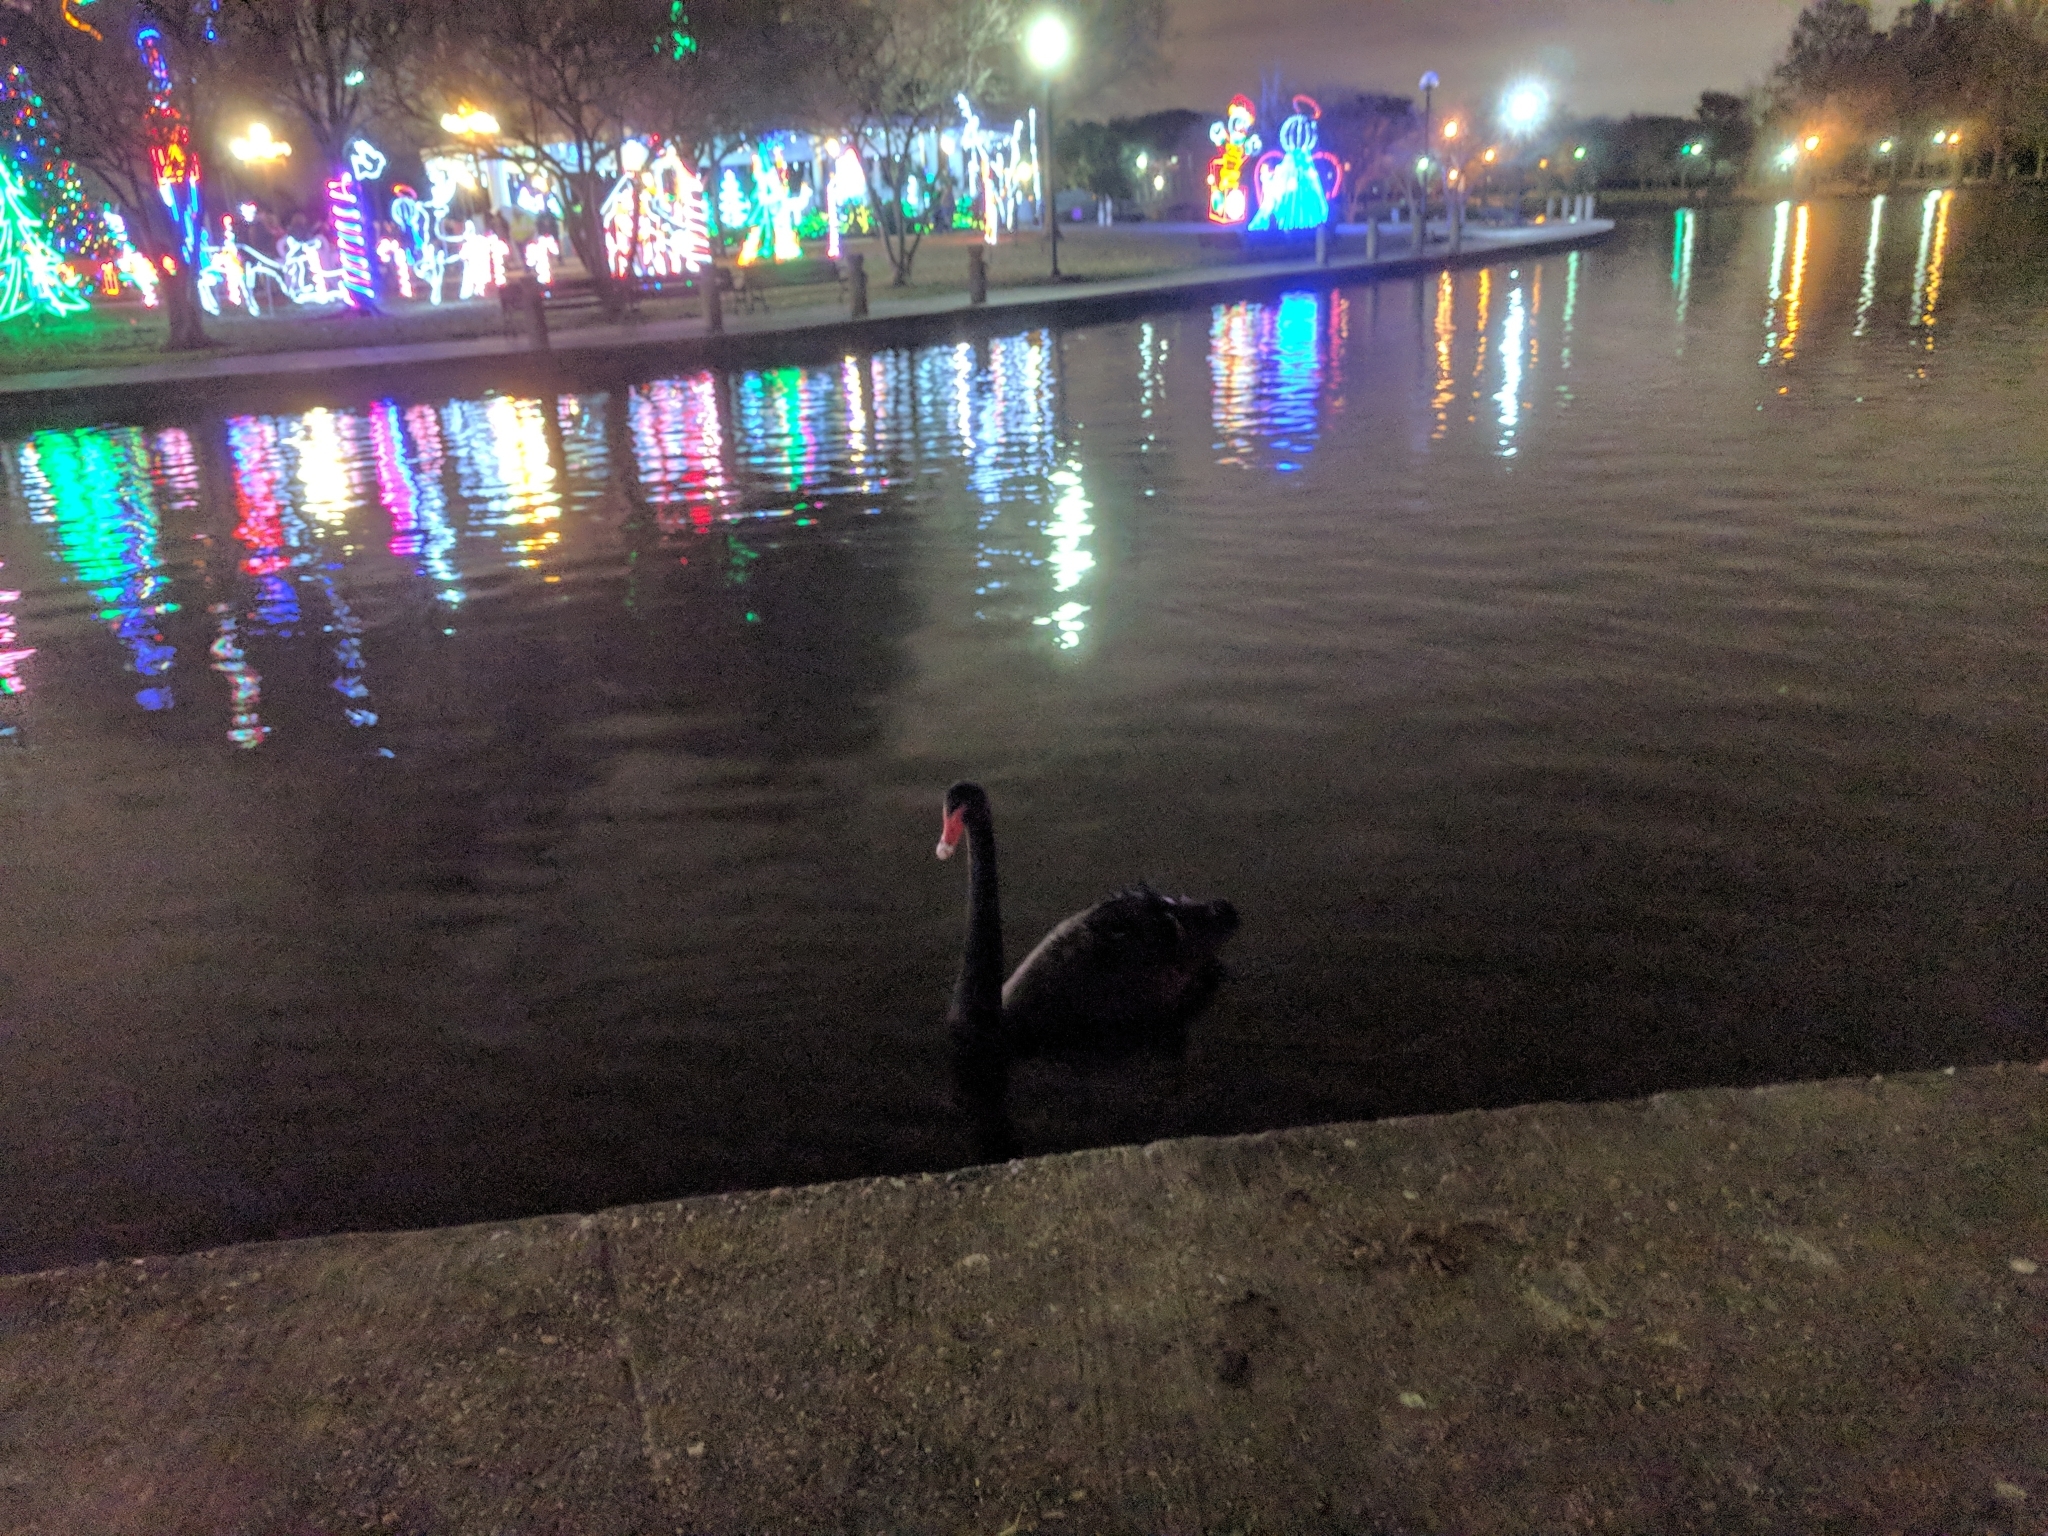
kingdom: Animalia
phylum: Chordata
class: Aves
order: Anseriformes
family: Anatidae
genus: Cygnus
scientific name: Cygnus atratus
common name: Black swan
